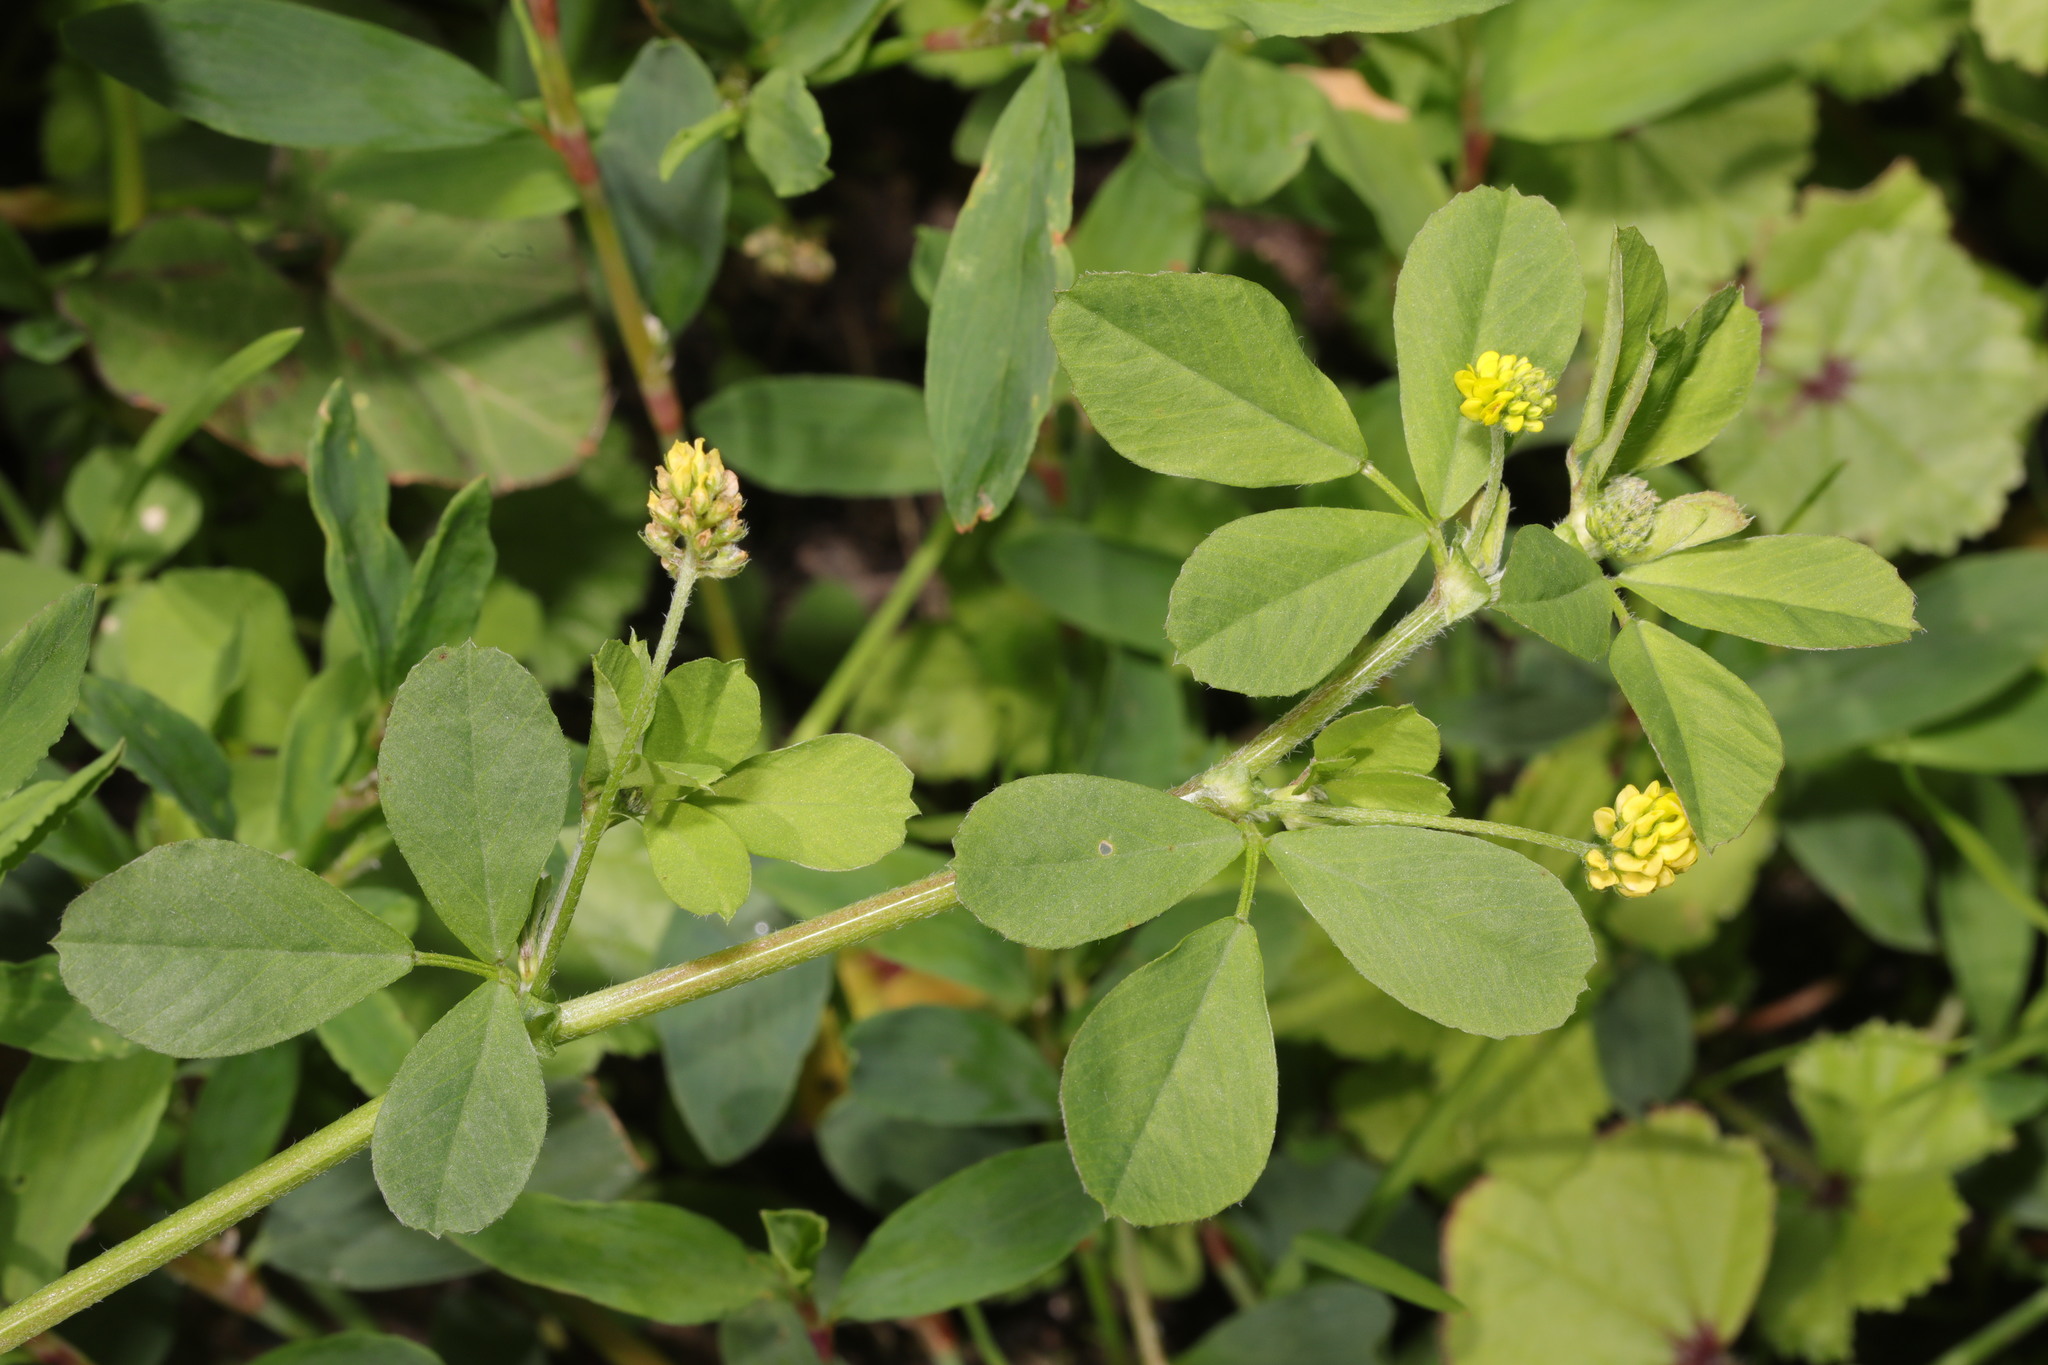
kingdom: Plantae
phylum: Tracheophyta
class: Magnoliopsida
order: Fabales
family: Fabaceae
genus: Medicago
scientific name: Medicago lupulina
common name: Black medick
